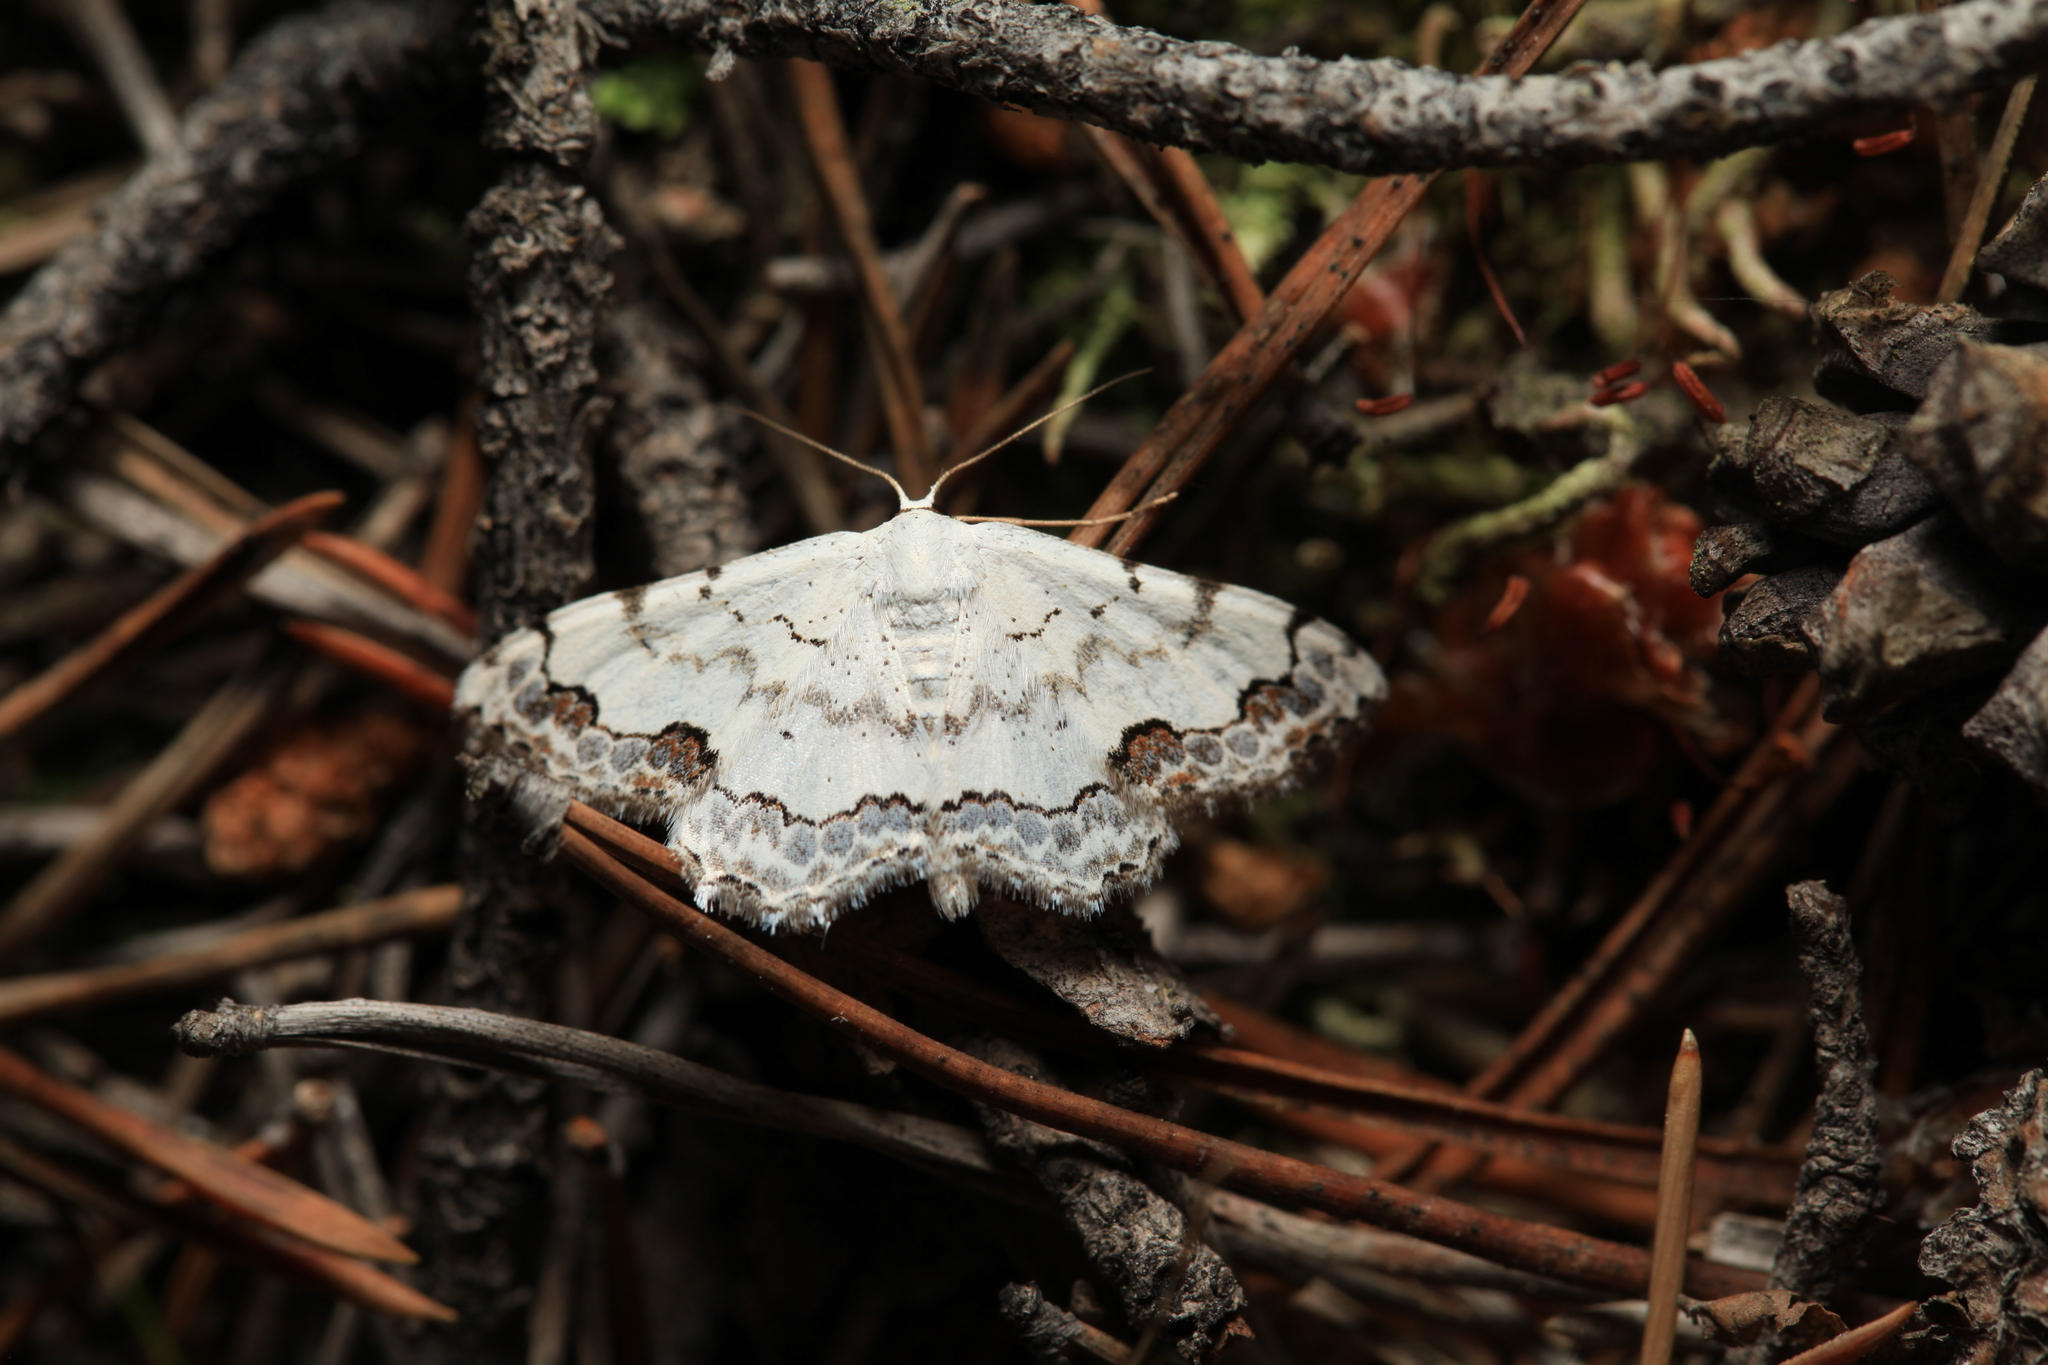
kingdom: Animalia
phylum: Arthropoda
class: Insecta
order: Lepidoptera
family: Geometridae
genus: Scopula
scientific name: Scopula decorata
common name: Middle lace border
